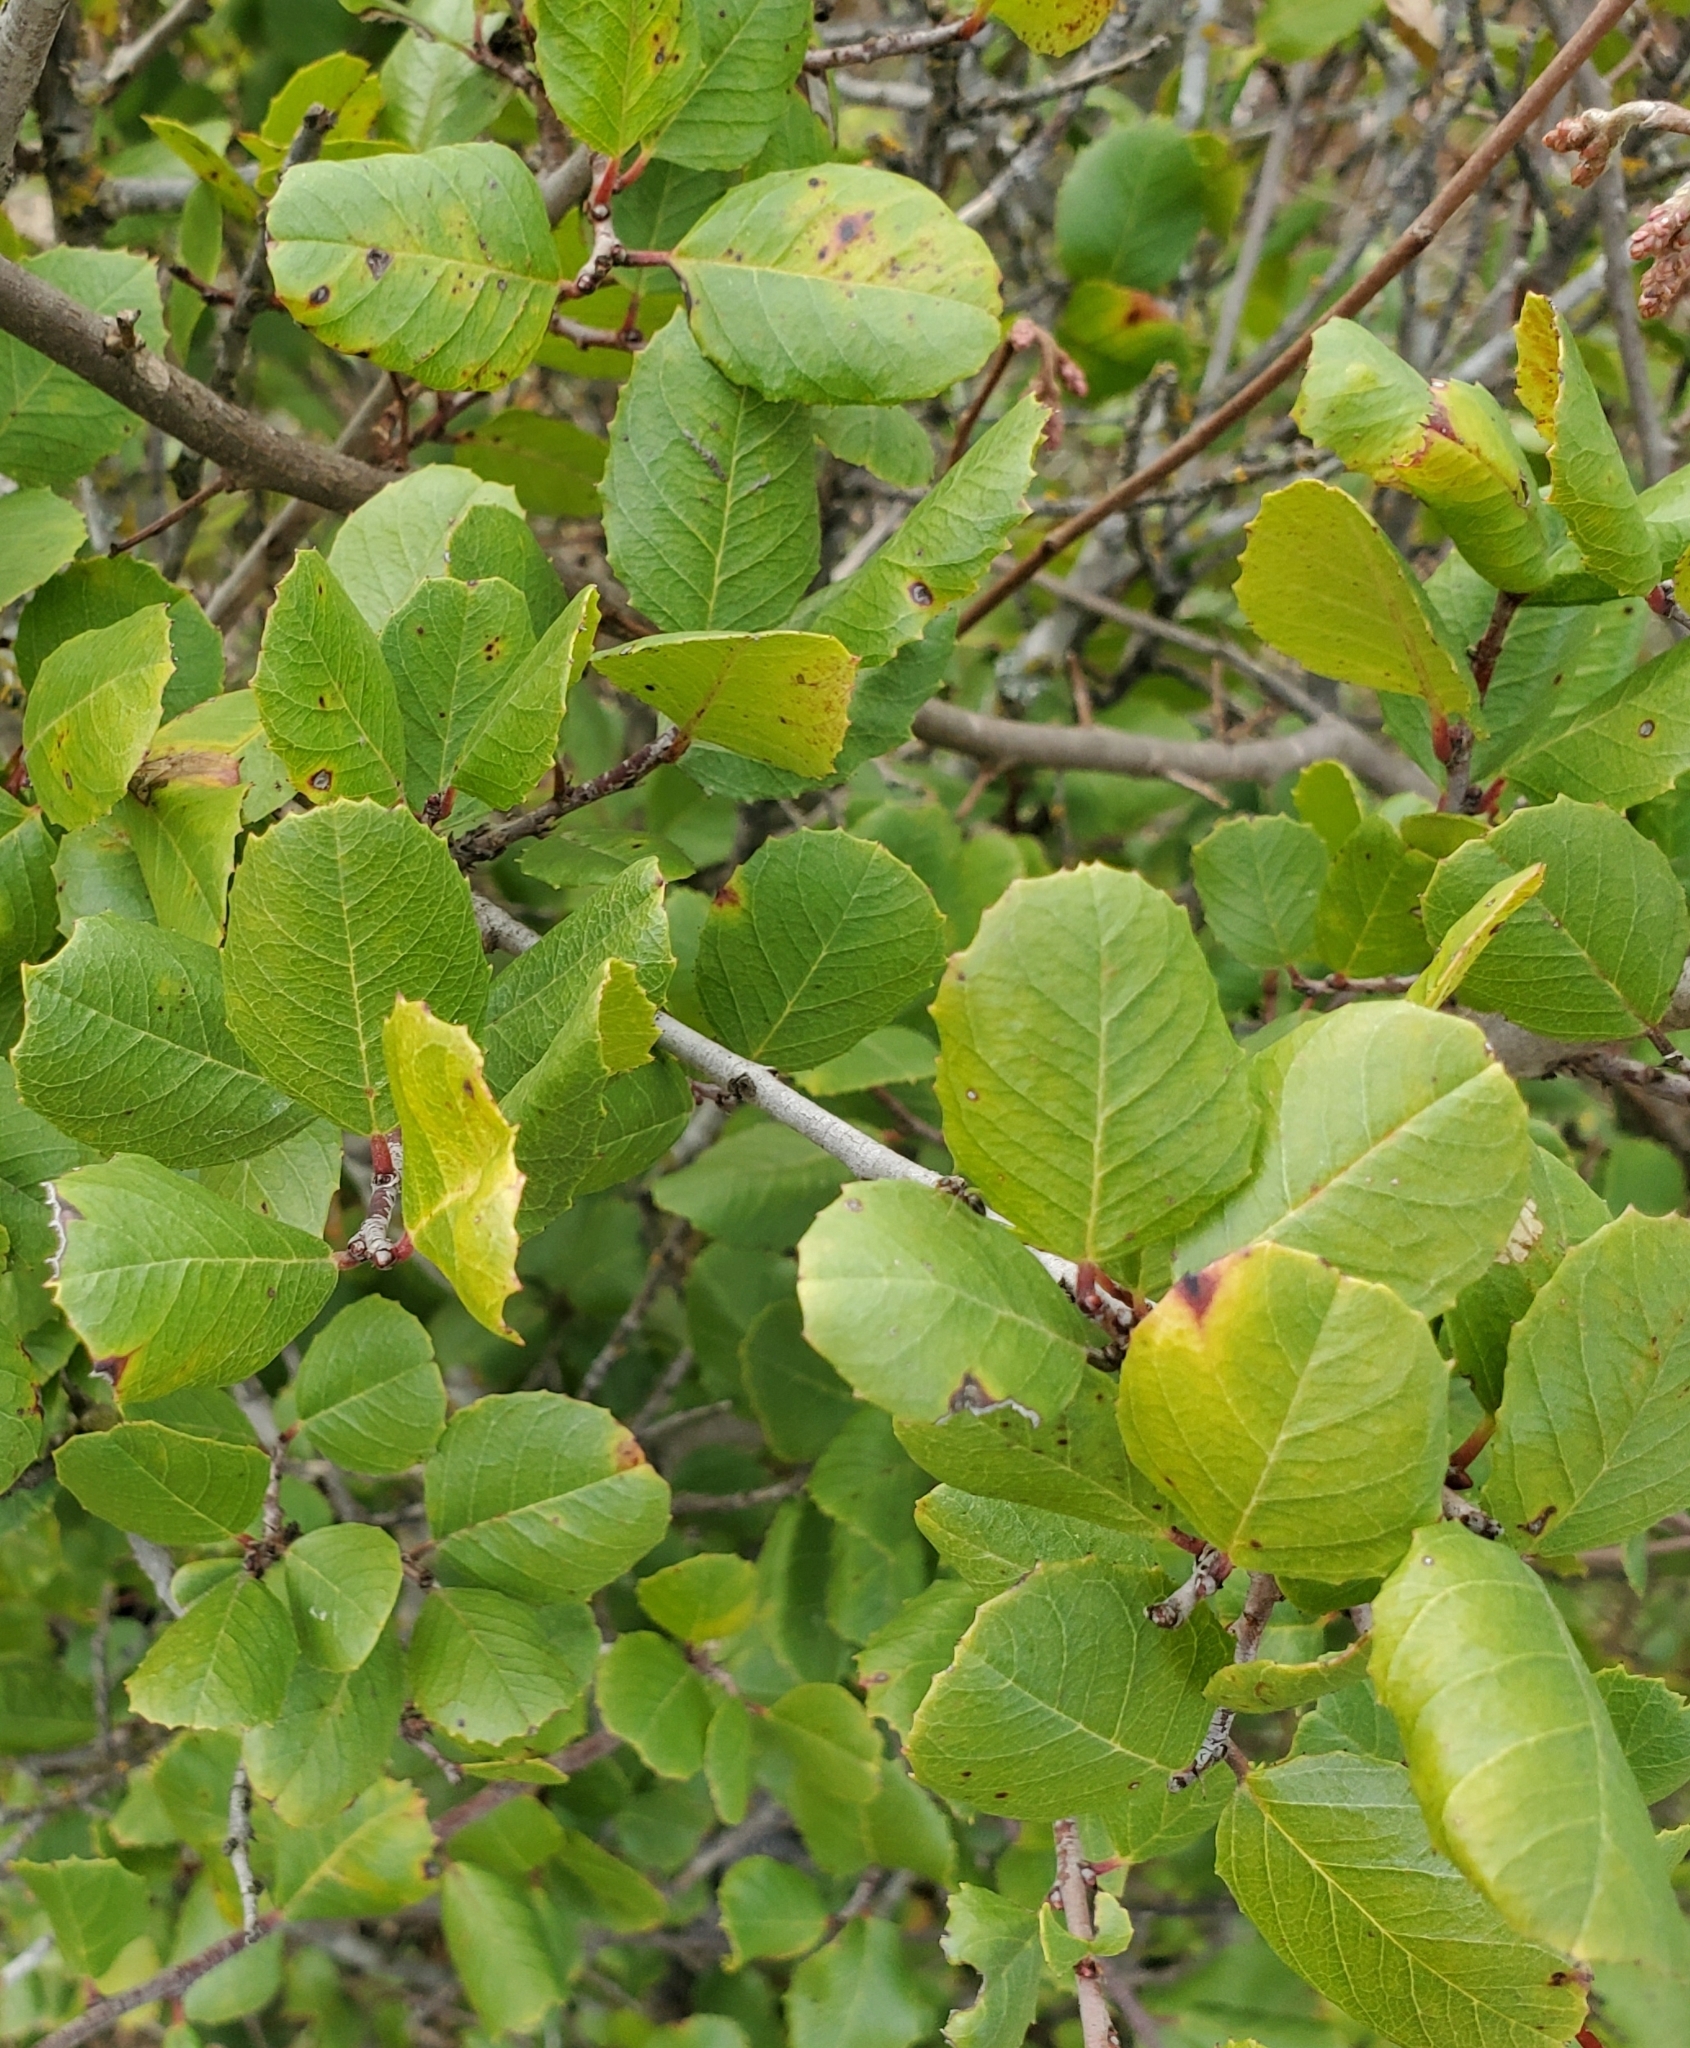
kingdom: Plantae
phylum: Tracheophyta
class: Magnoliopsida
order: Rosales
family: Rhamnaceae
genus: Endotropis
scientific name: Endotropis crocea
